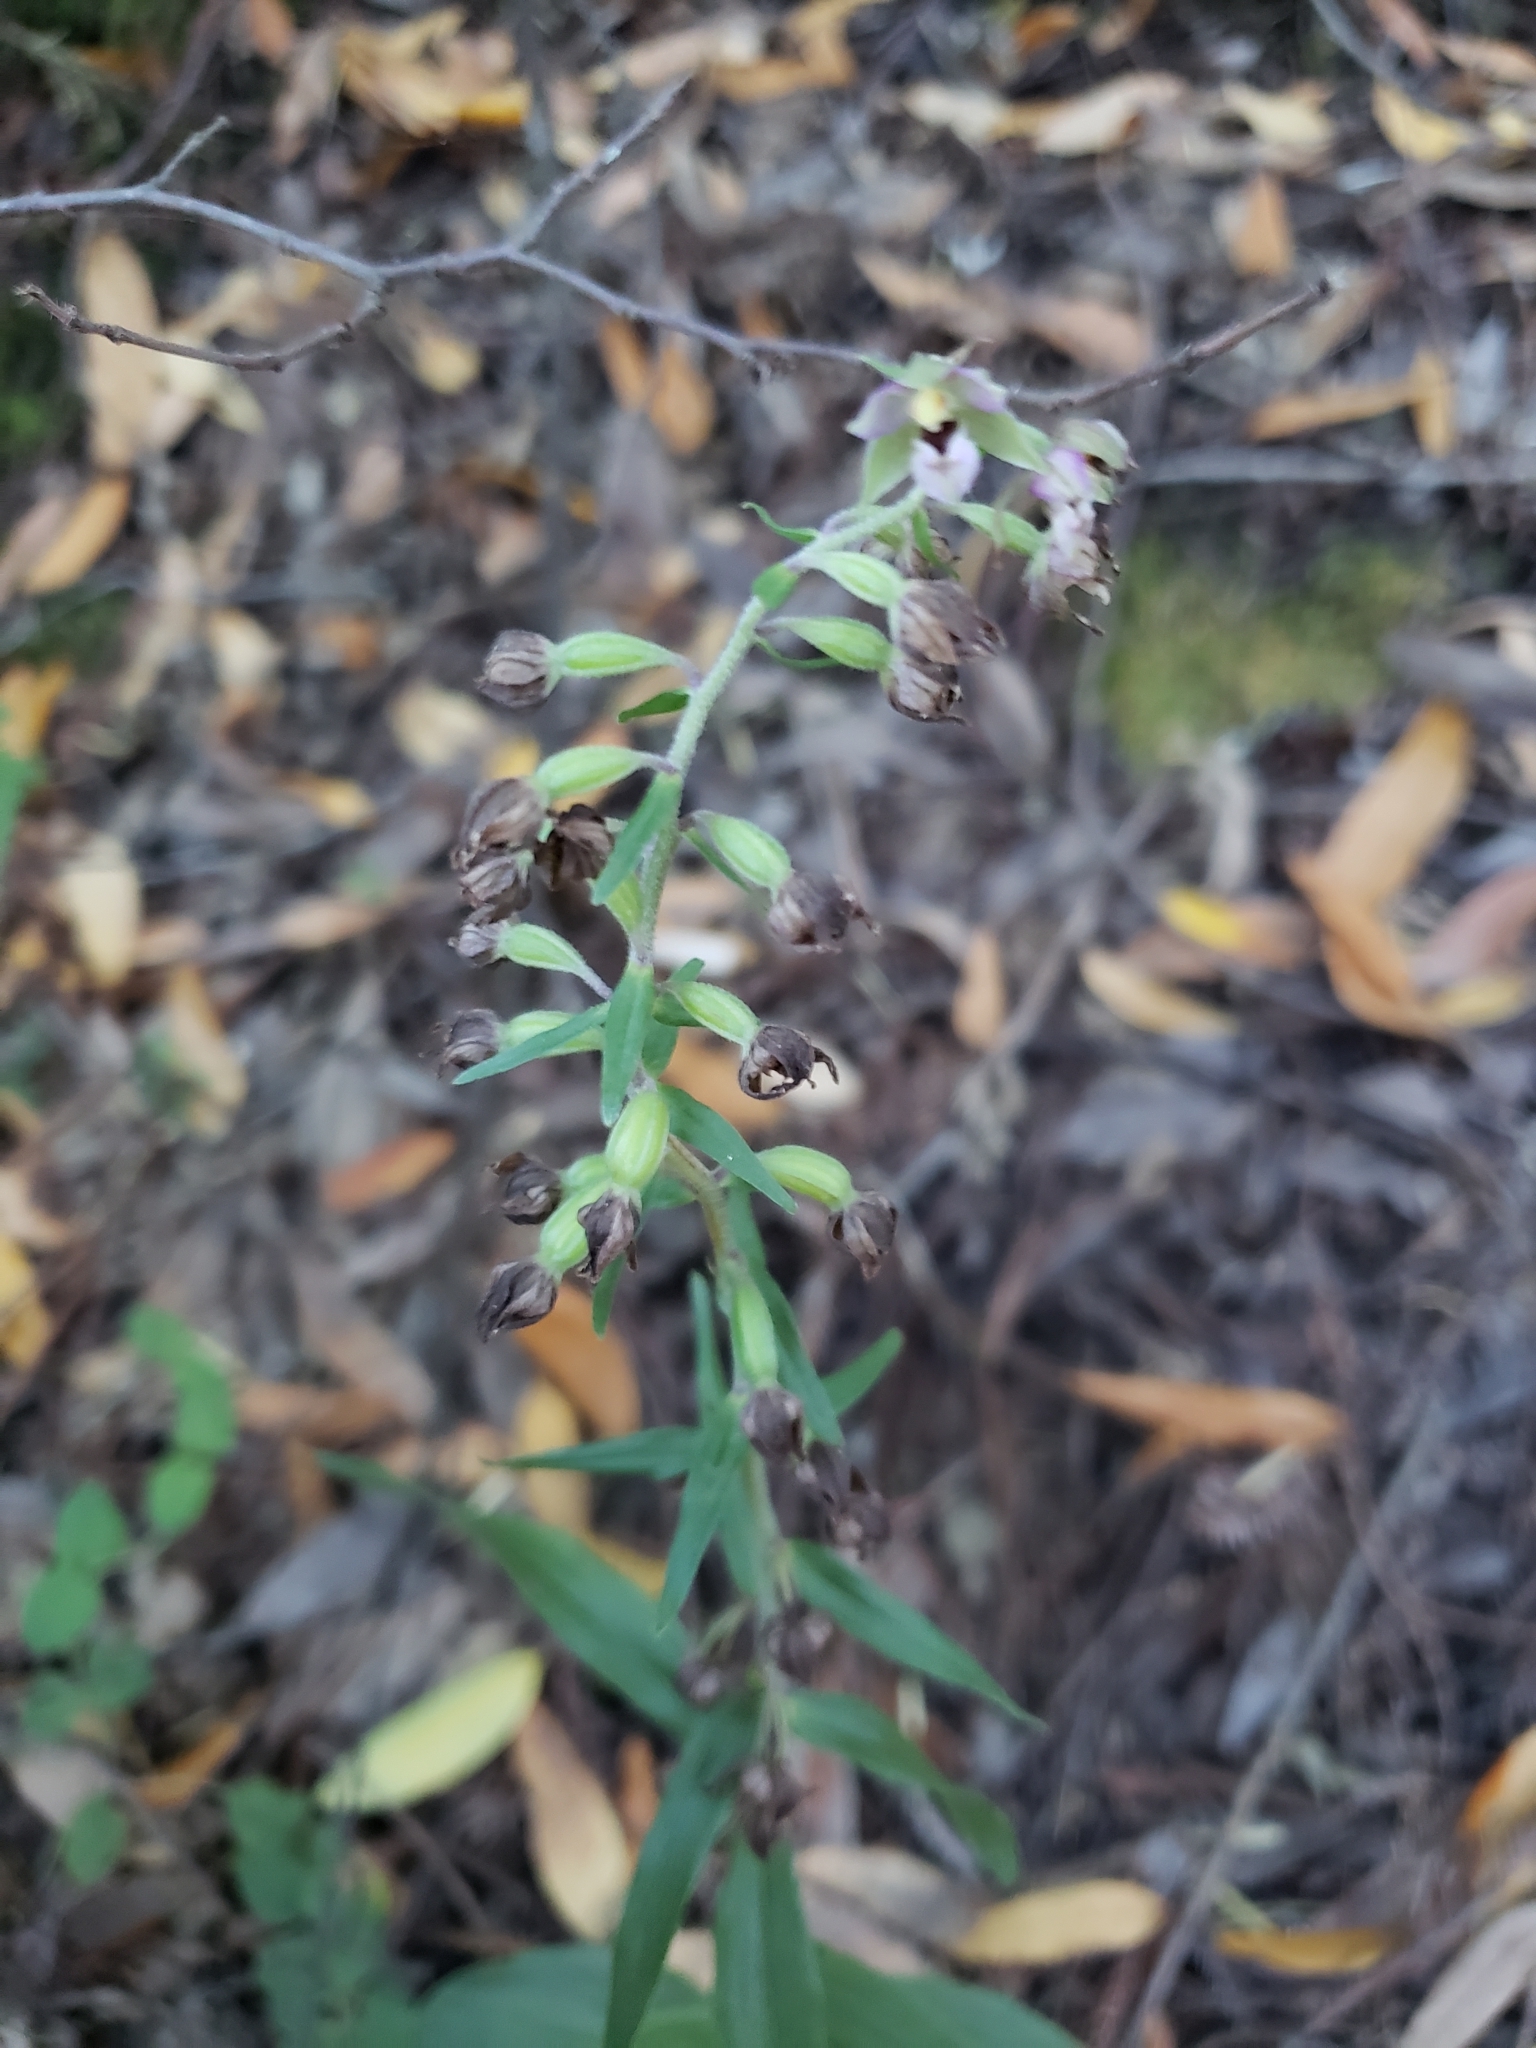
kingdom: Plantae
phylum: Tracheophyta
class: Liliopsida
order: Asparagales
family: Orchidaceae
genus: Epipactis
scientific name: Epipactis helleborine
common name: Broad-leaved helleborine
